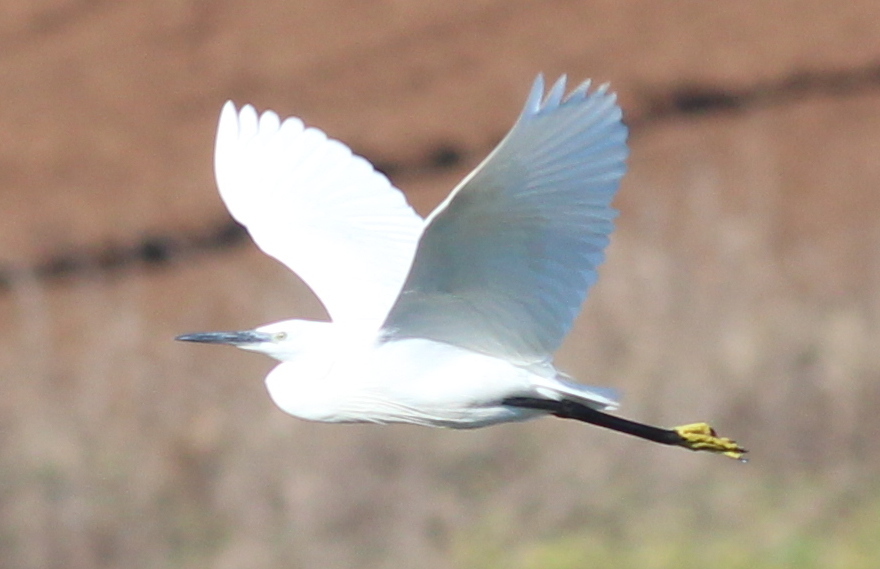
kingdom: Animalia
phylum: Chordata
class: Aves
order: Pelecaniformes
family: Ardeidae
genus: Egretta
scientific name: Egretta garzetta
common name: Little egret
